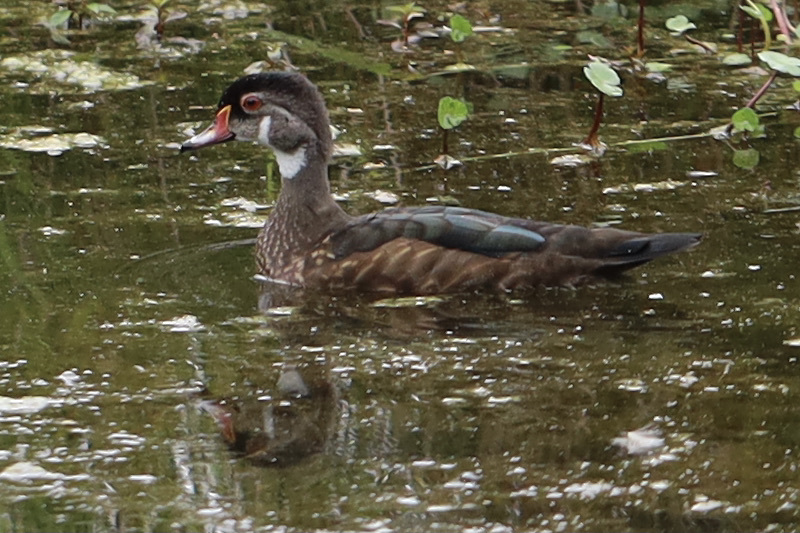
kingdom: Animalia
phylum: Chordata
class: Aves
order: Anseriformes
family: Anatidae
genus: Aix
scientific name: Aix sponsa
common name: Wood duck
